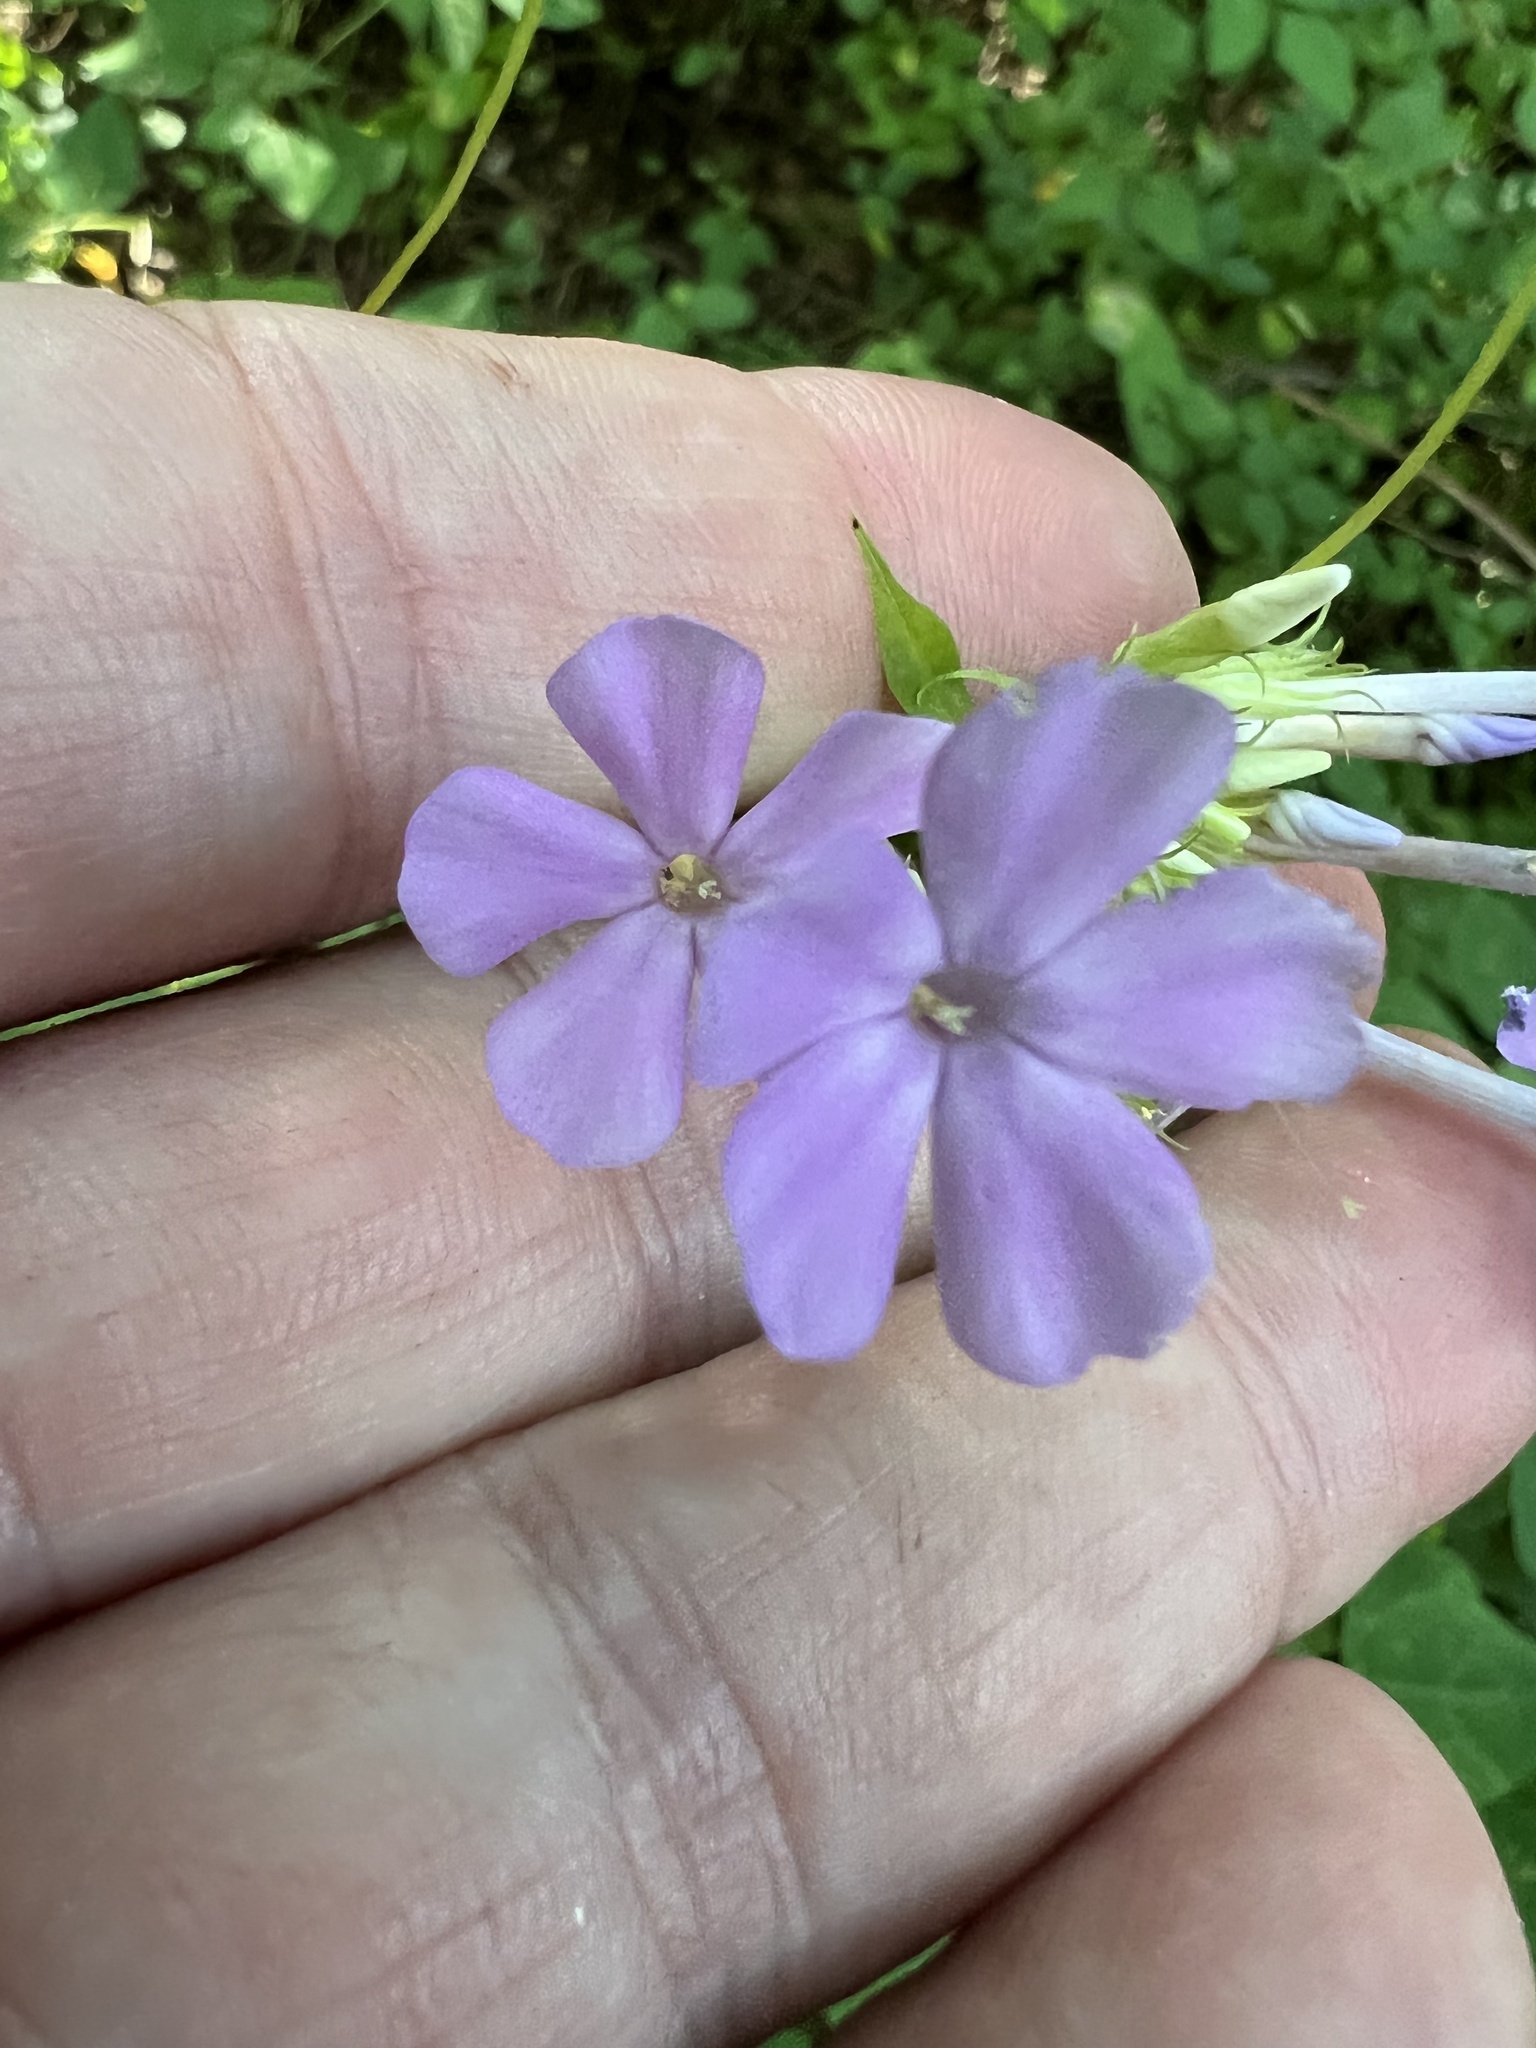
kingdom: Plantae
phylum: Tracheophyta
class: Magnoliopsida
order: Ericales
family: Polemoniaceae
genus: Phlox
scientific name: Phlox paniculata
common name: Fall phlox
